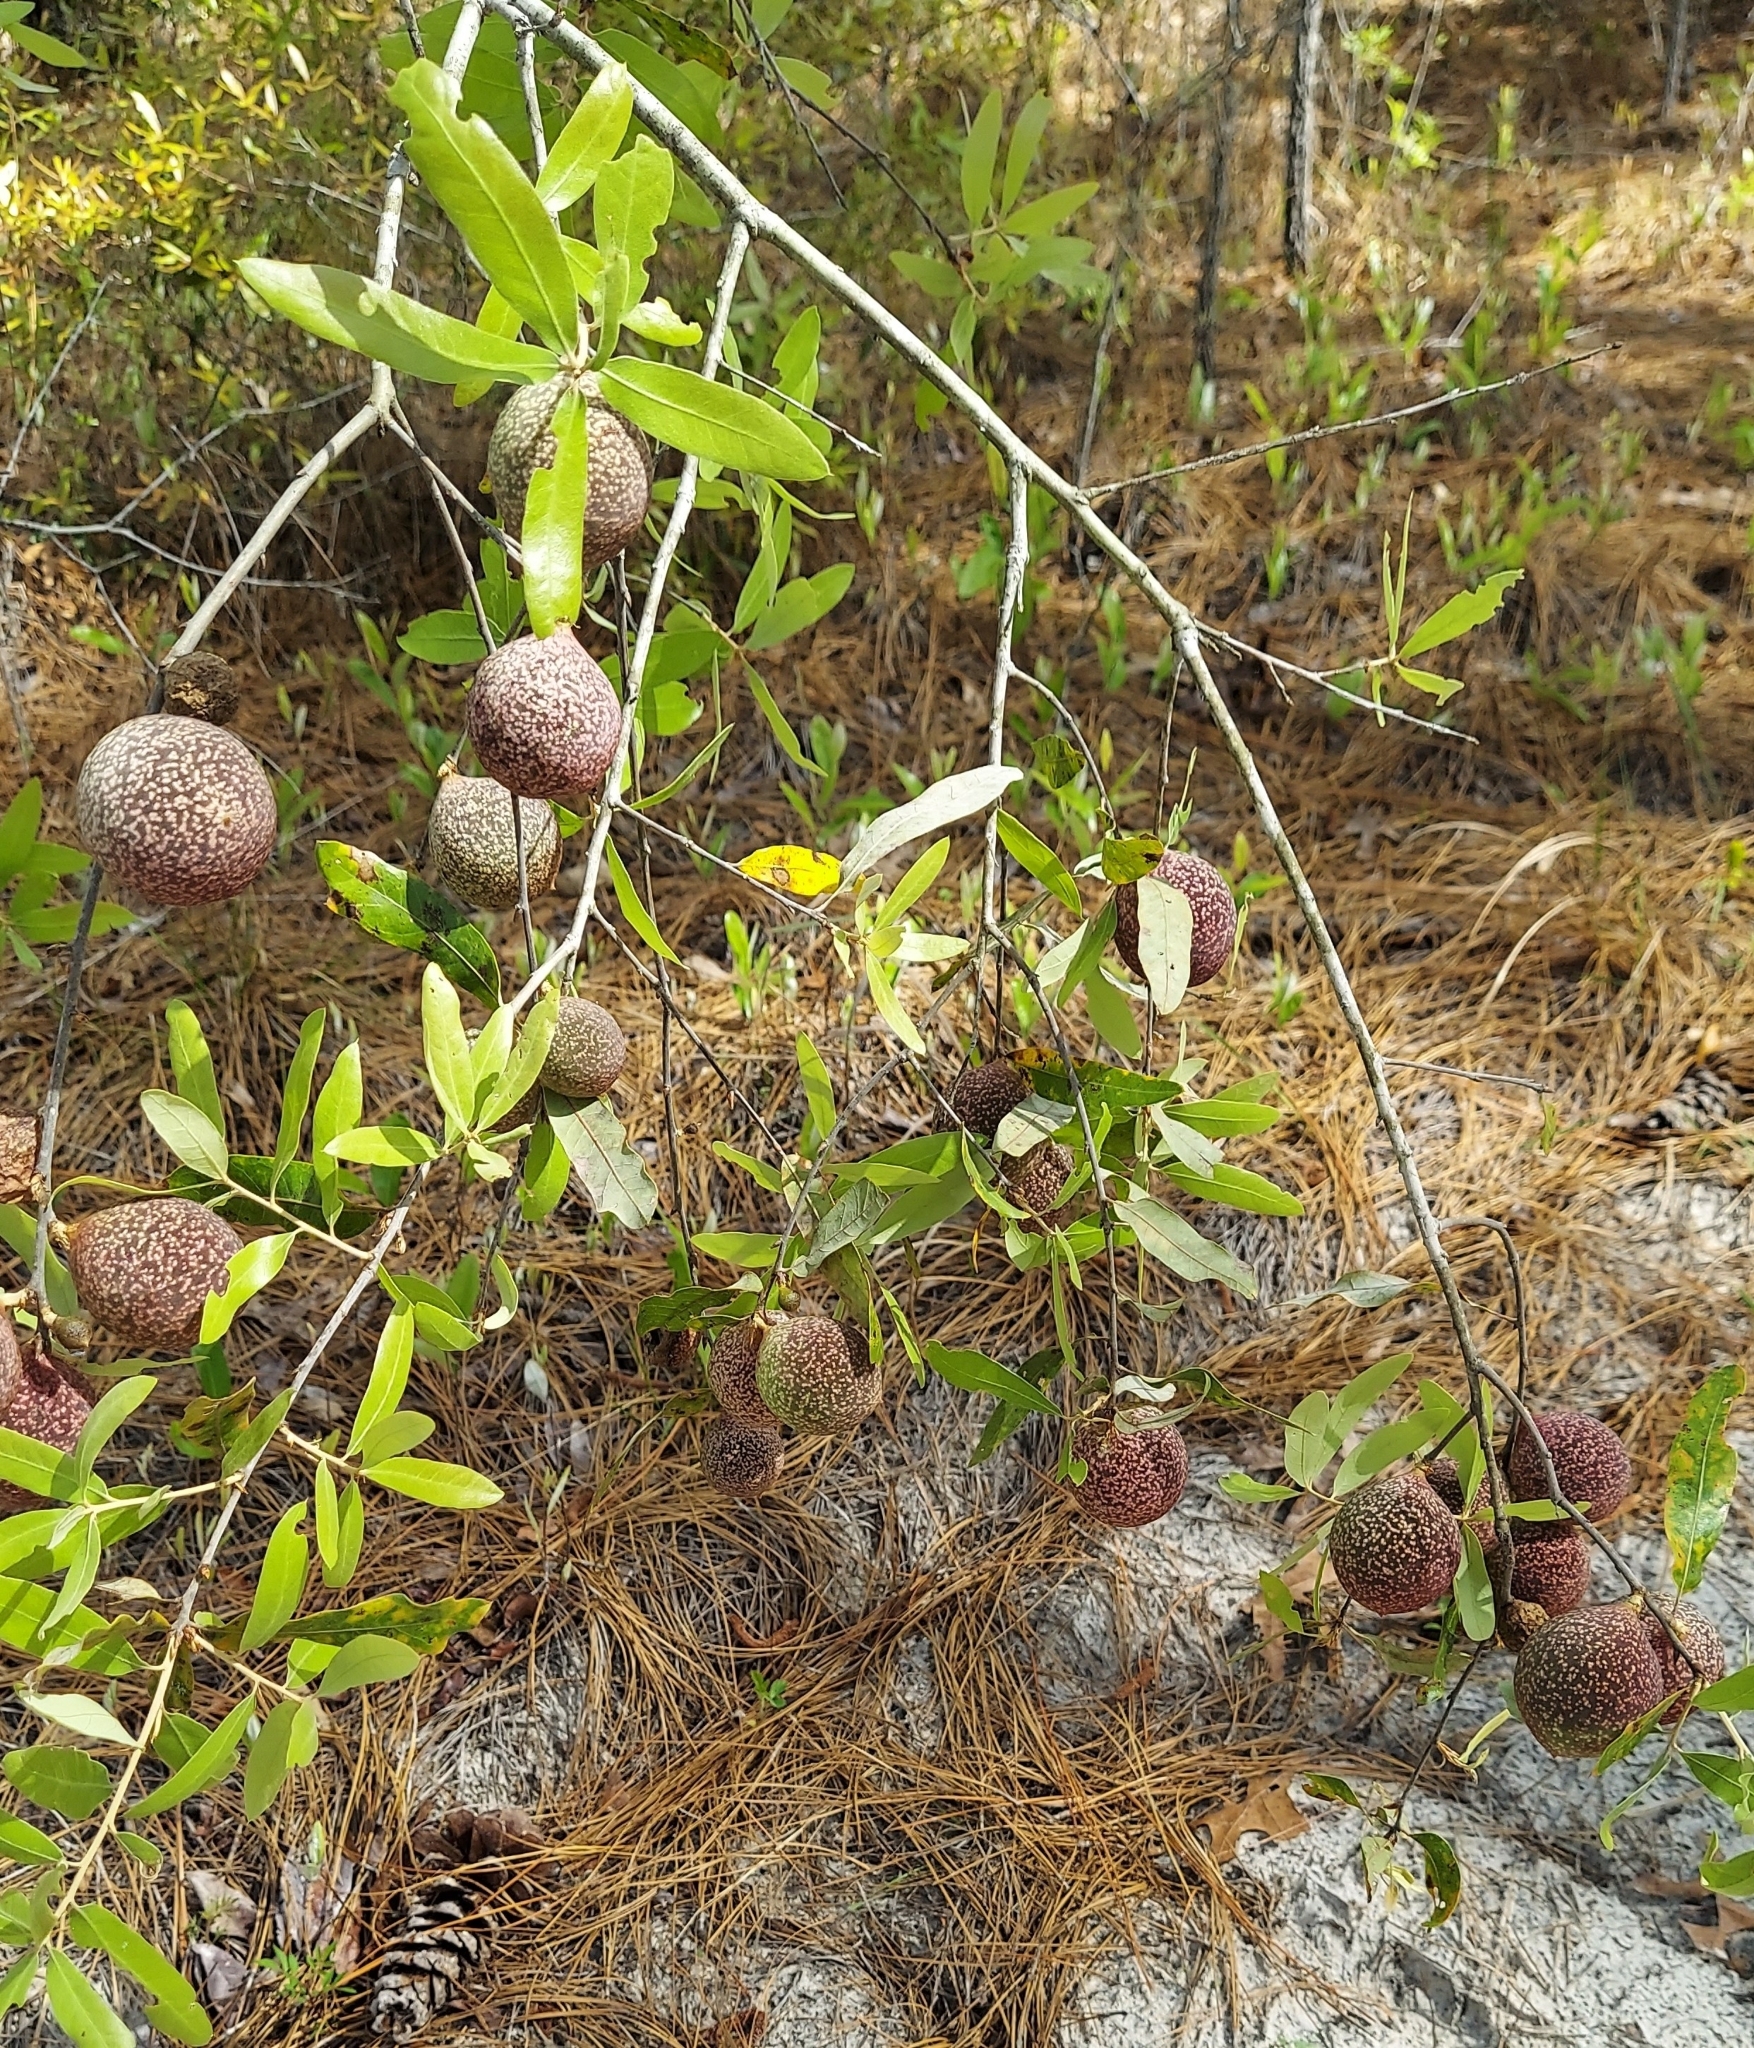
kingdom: Animalia
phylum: Arthropoda
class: Insecta
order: Hymenoptera
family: Cynipidae
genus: Amphibolips
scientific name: Amphibolips
